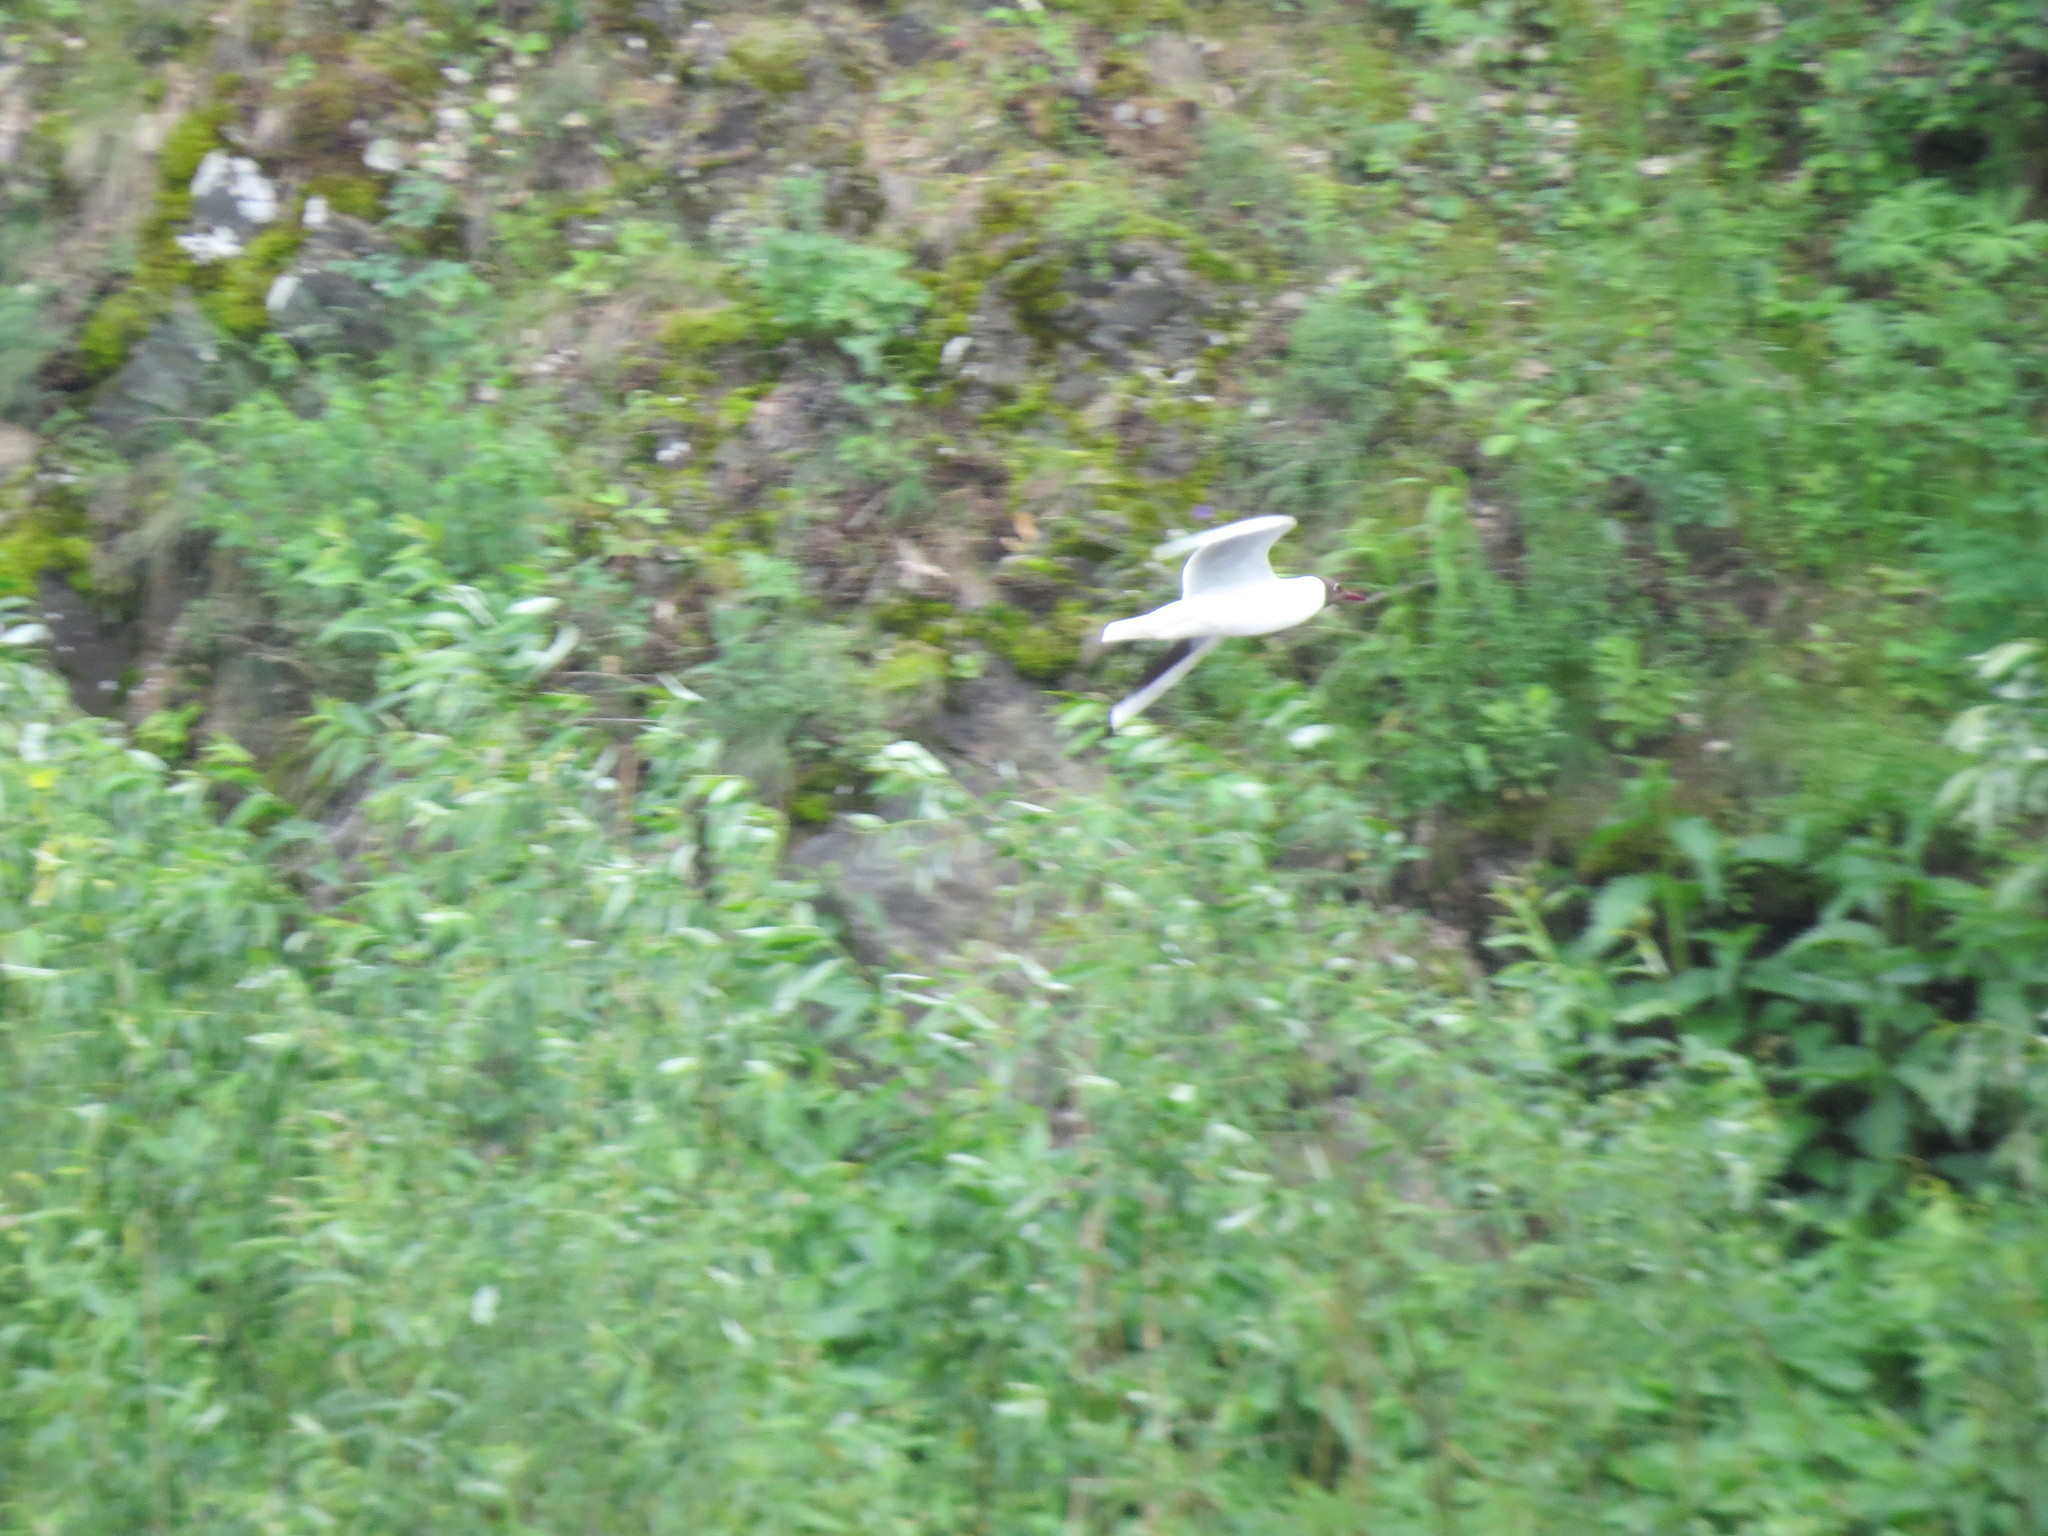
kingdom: Animalia
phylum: Chordata
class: Aves
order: Charadriiformes
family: Laridae
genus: Chroicocephalus
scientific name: Chroicocephalus ridibundus
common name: Black-headed gull
